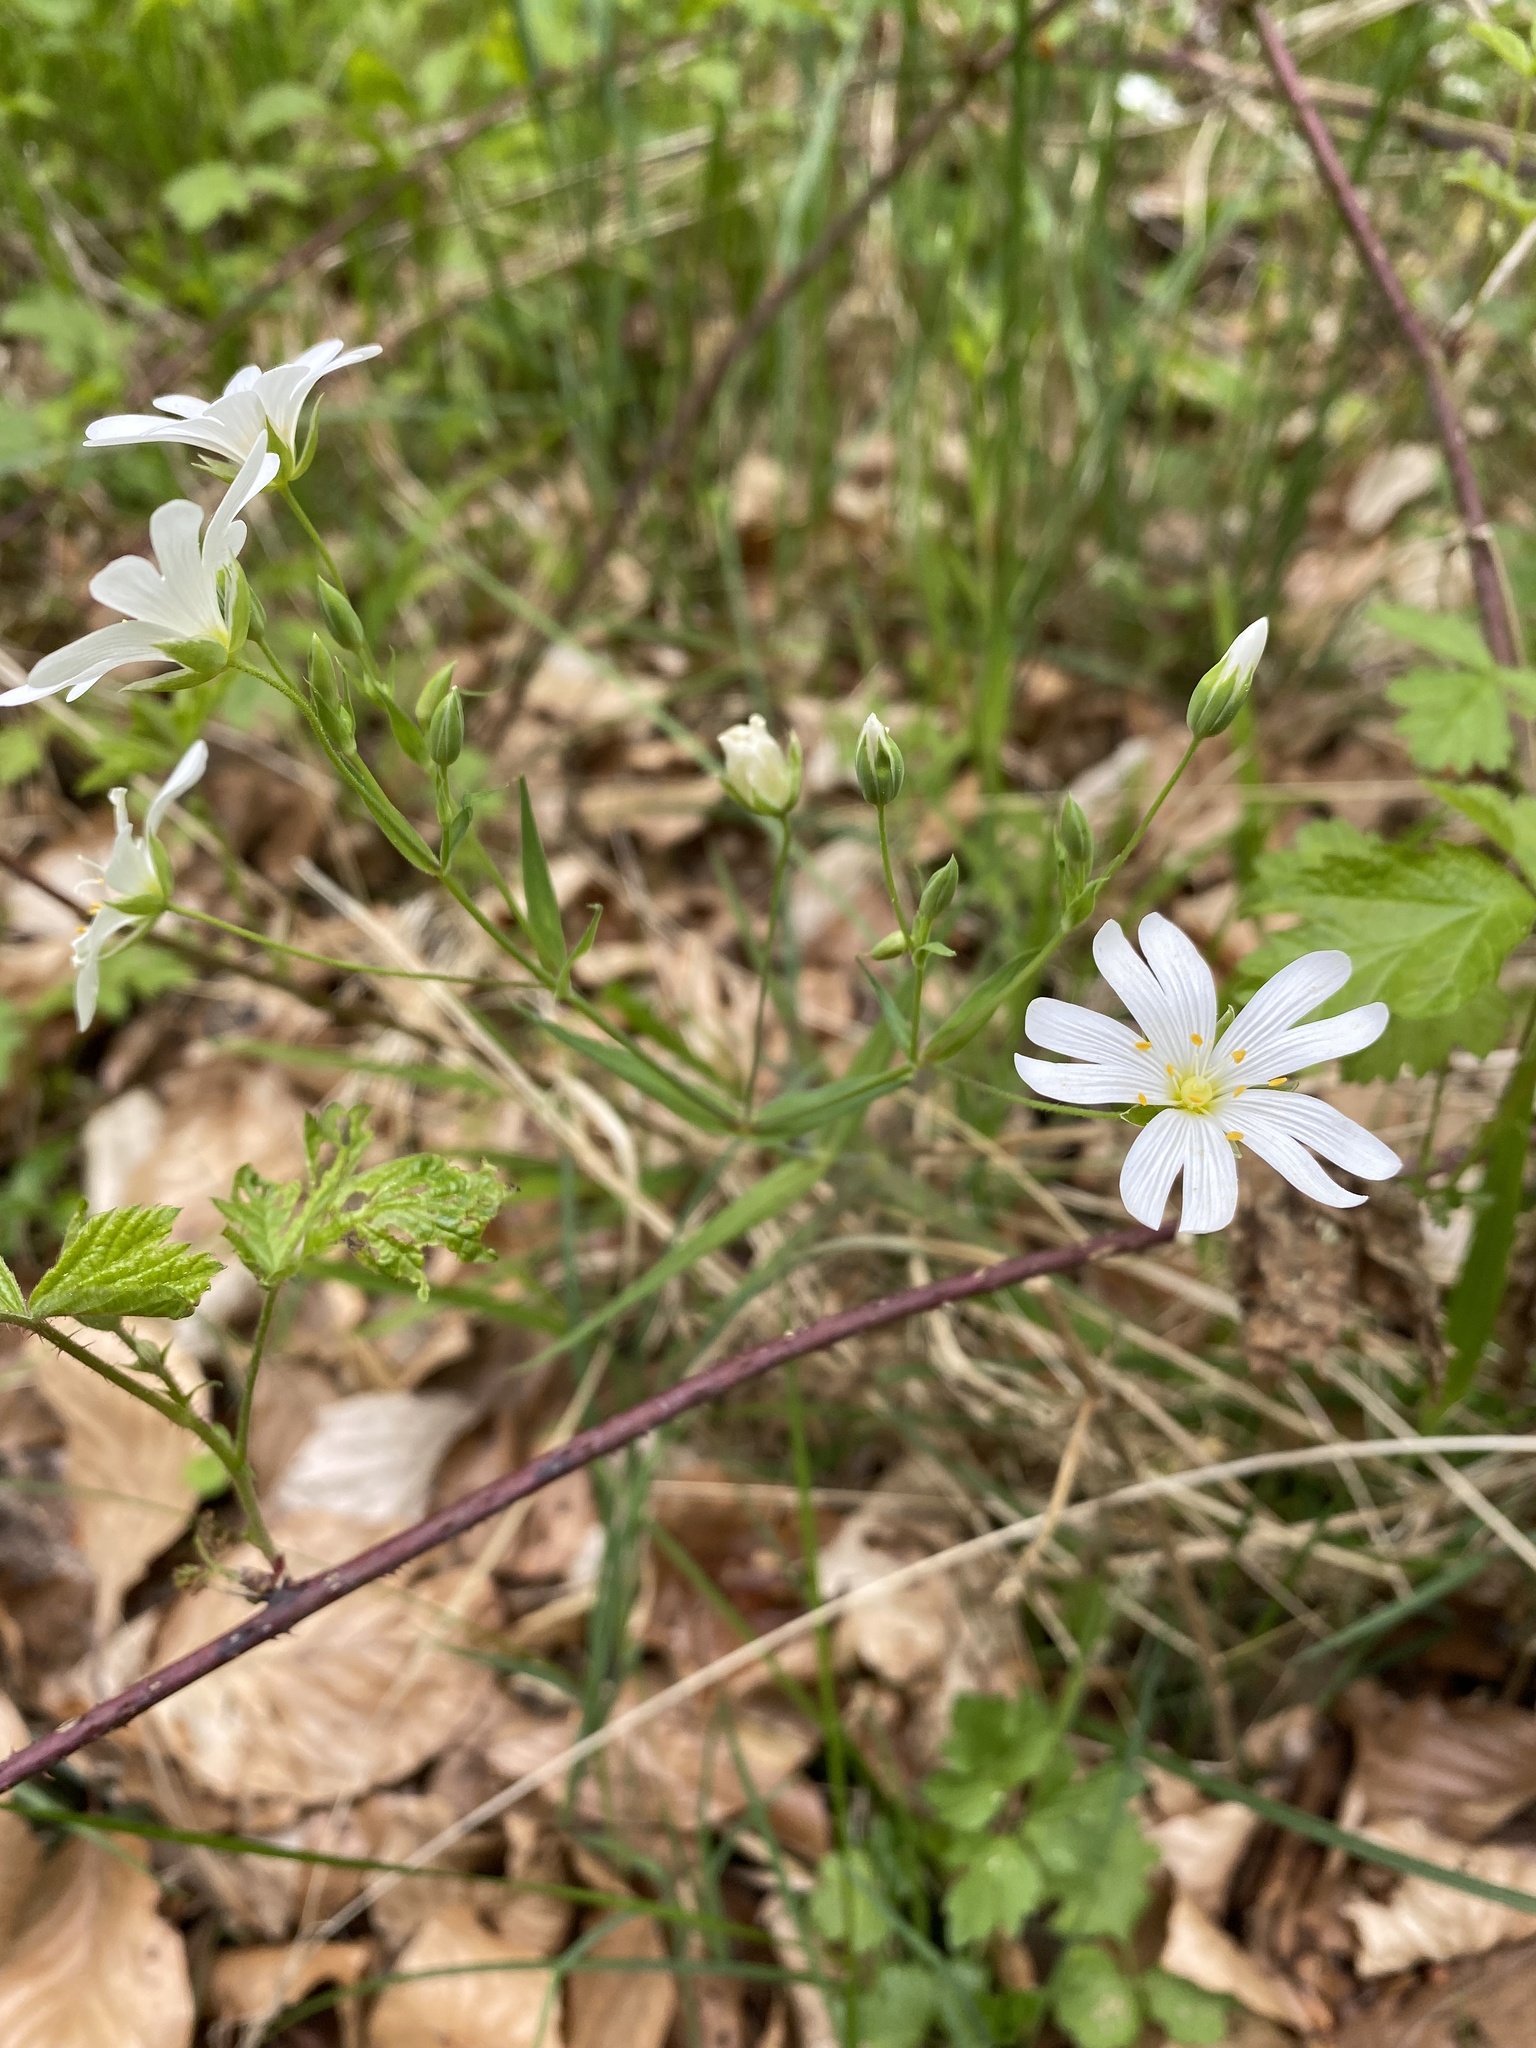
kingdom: Plantae
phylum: Tracheophyta
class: Magnoliopsida
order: Caryophyllales
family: Caryophyllaceae
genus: Rabelera
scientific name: Rabelera holostea
